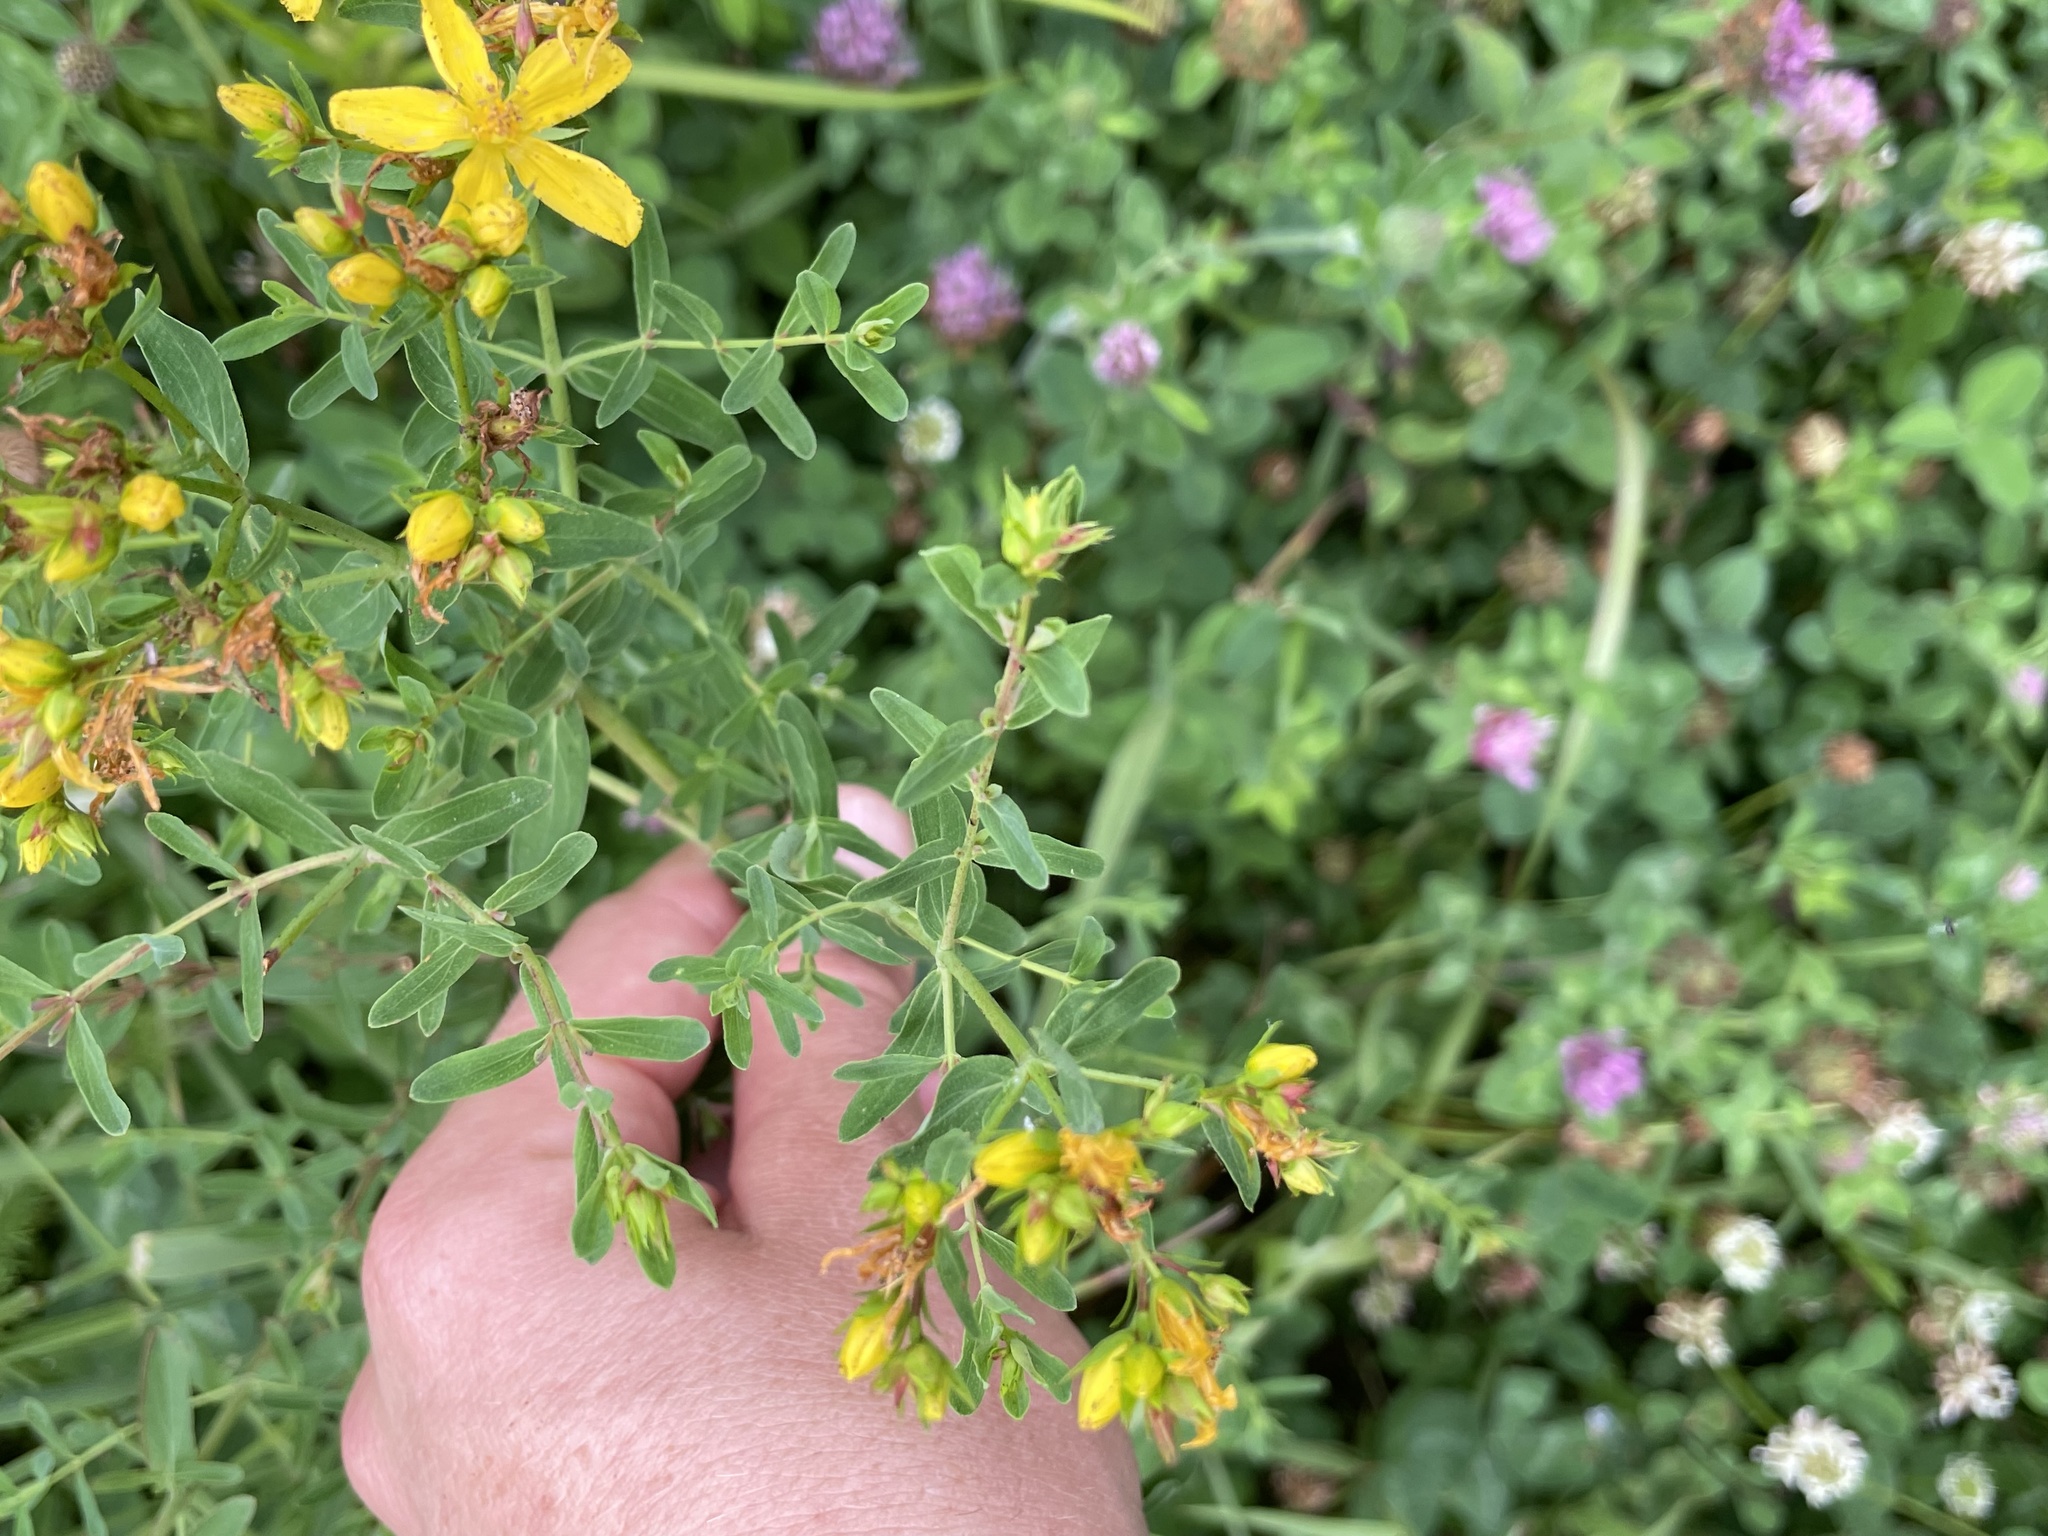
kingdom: Plantae
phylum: Tracheophyta
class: Magnoliopsida
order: Malpighiales
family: Hypericaceae
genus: Hypericum
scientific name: Hypericum perforatum
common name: Common st. johnswort
